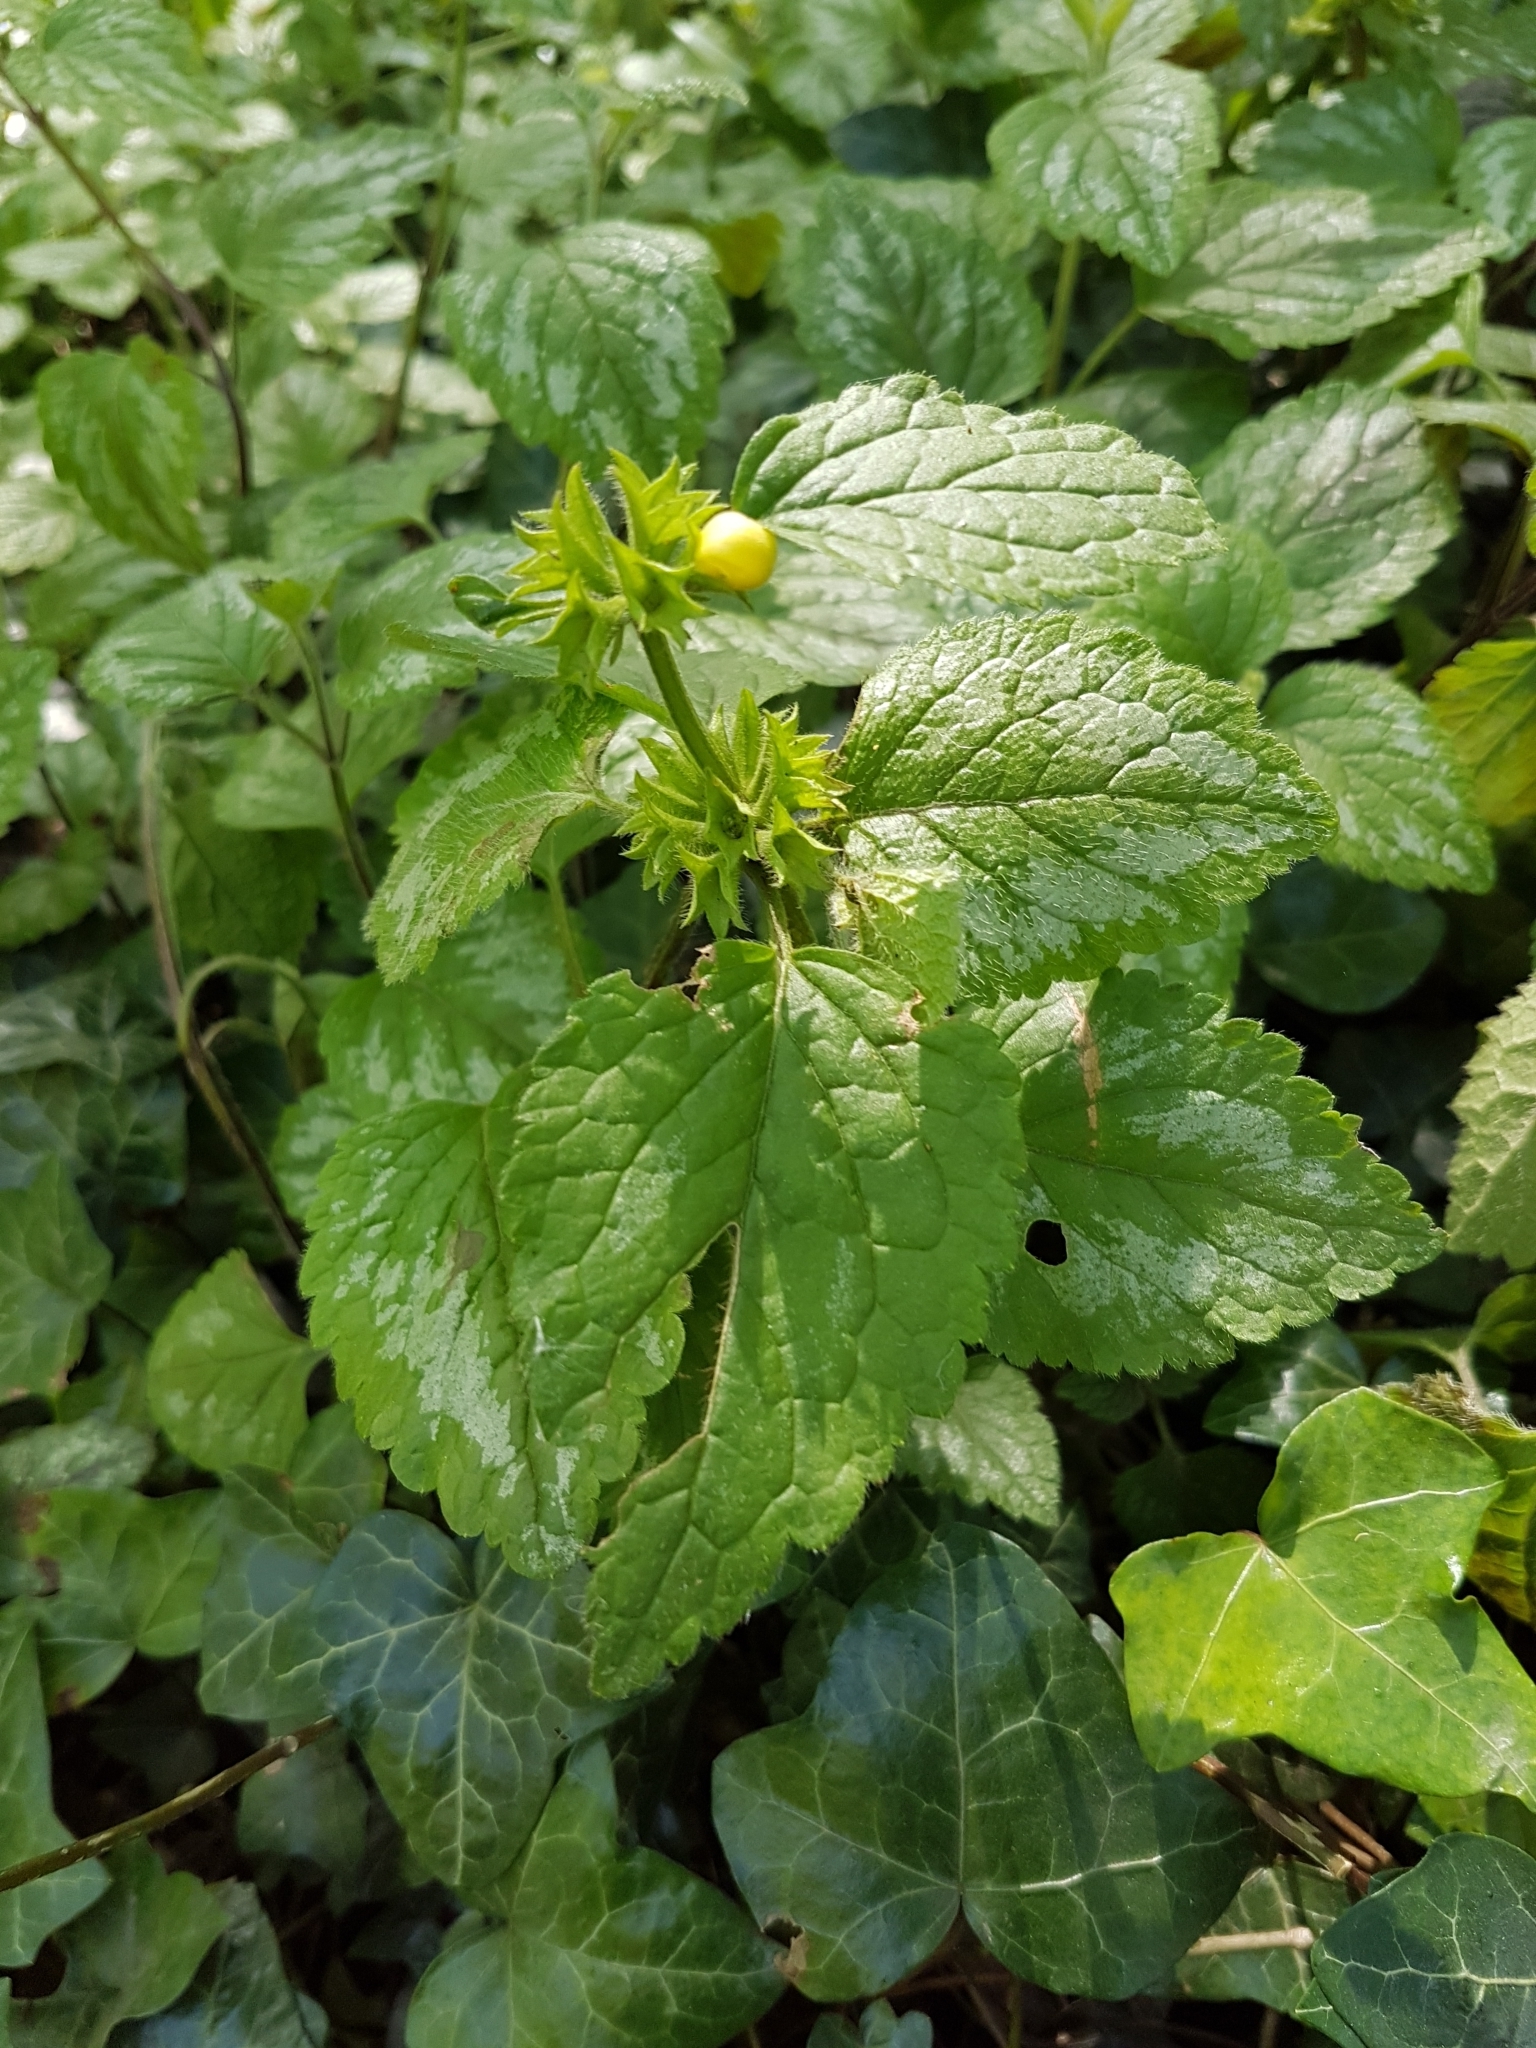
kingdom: Plantae
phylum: Tracheophyta
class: Magnoliopsida
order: Lamiales
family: Lamiaceae
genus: Lamium
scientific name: Lamium galeobdolon
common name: Yellow archangel
